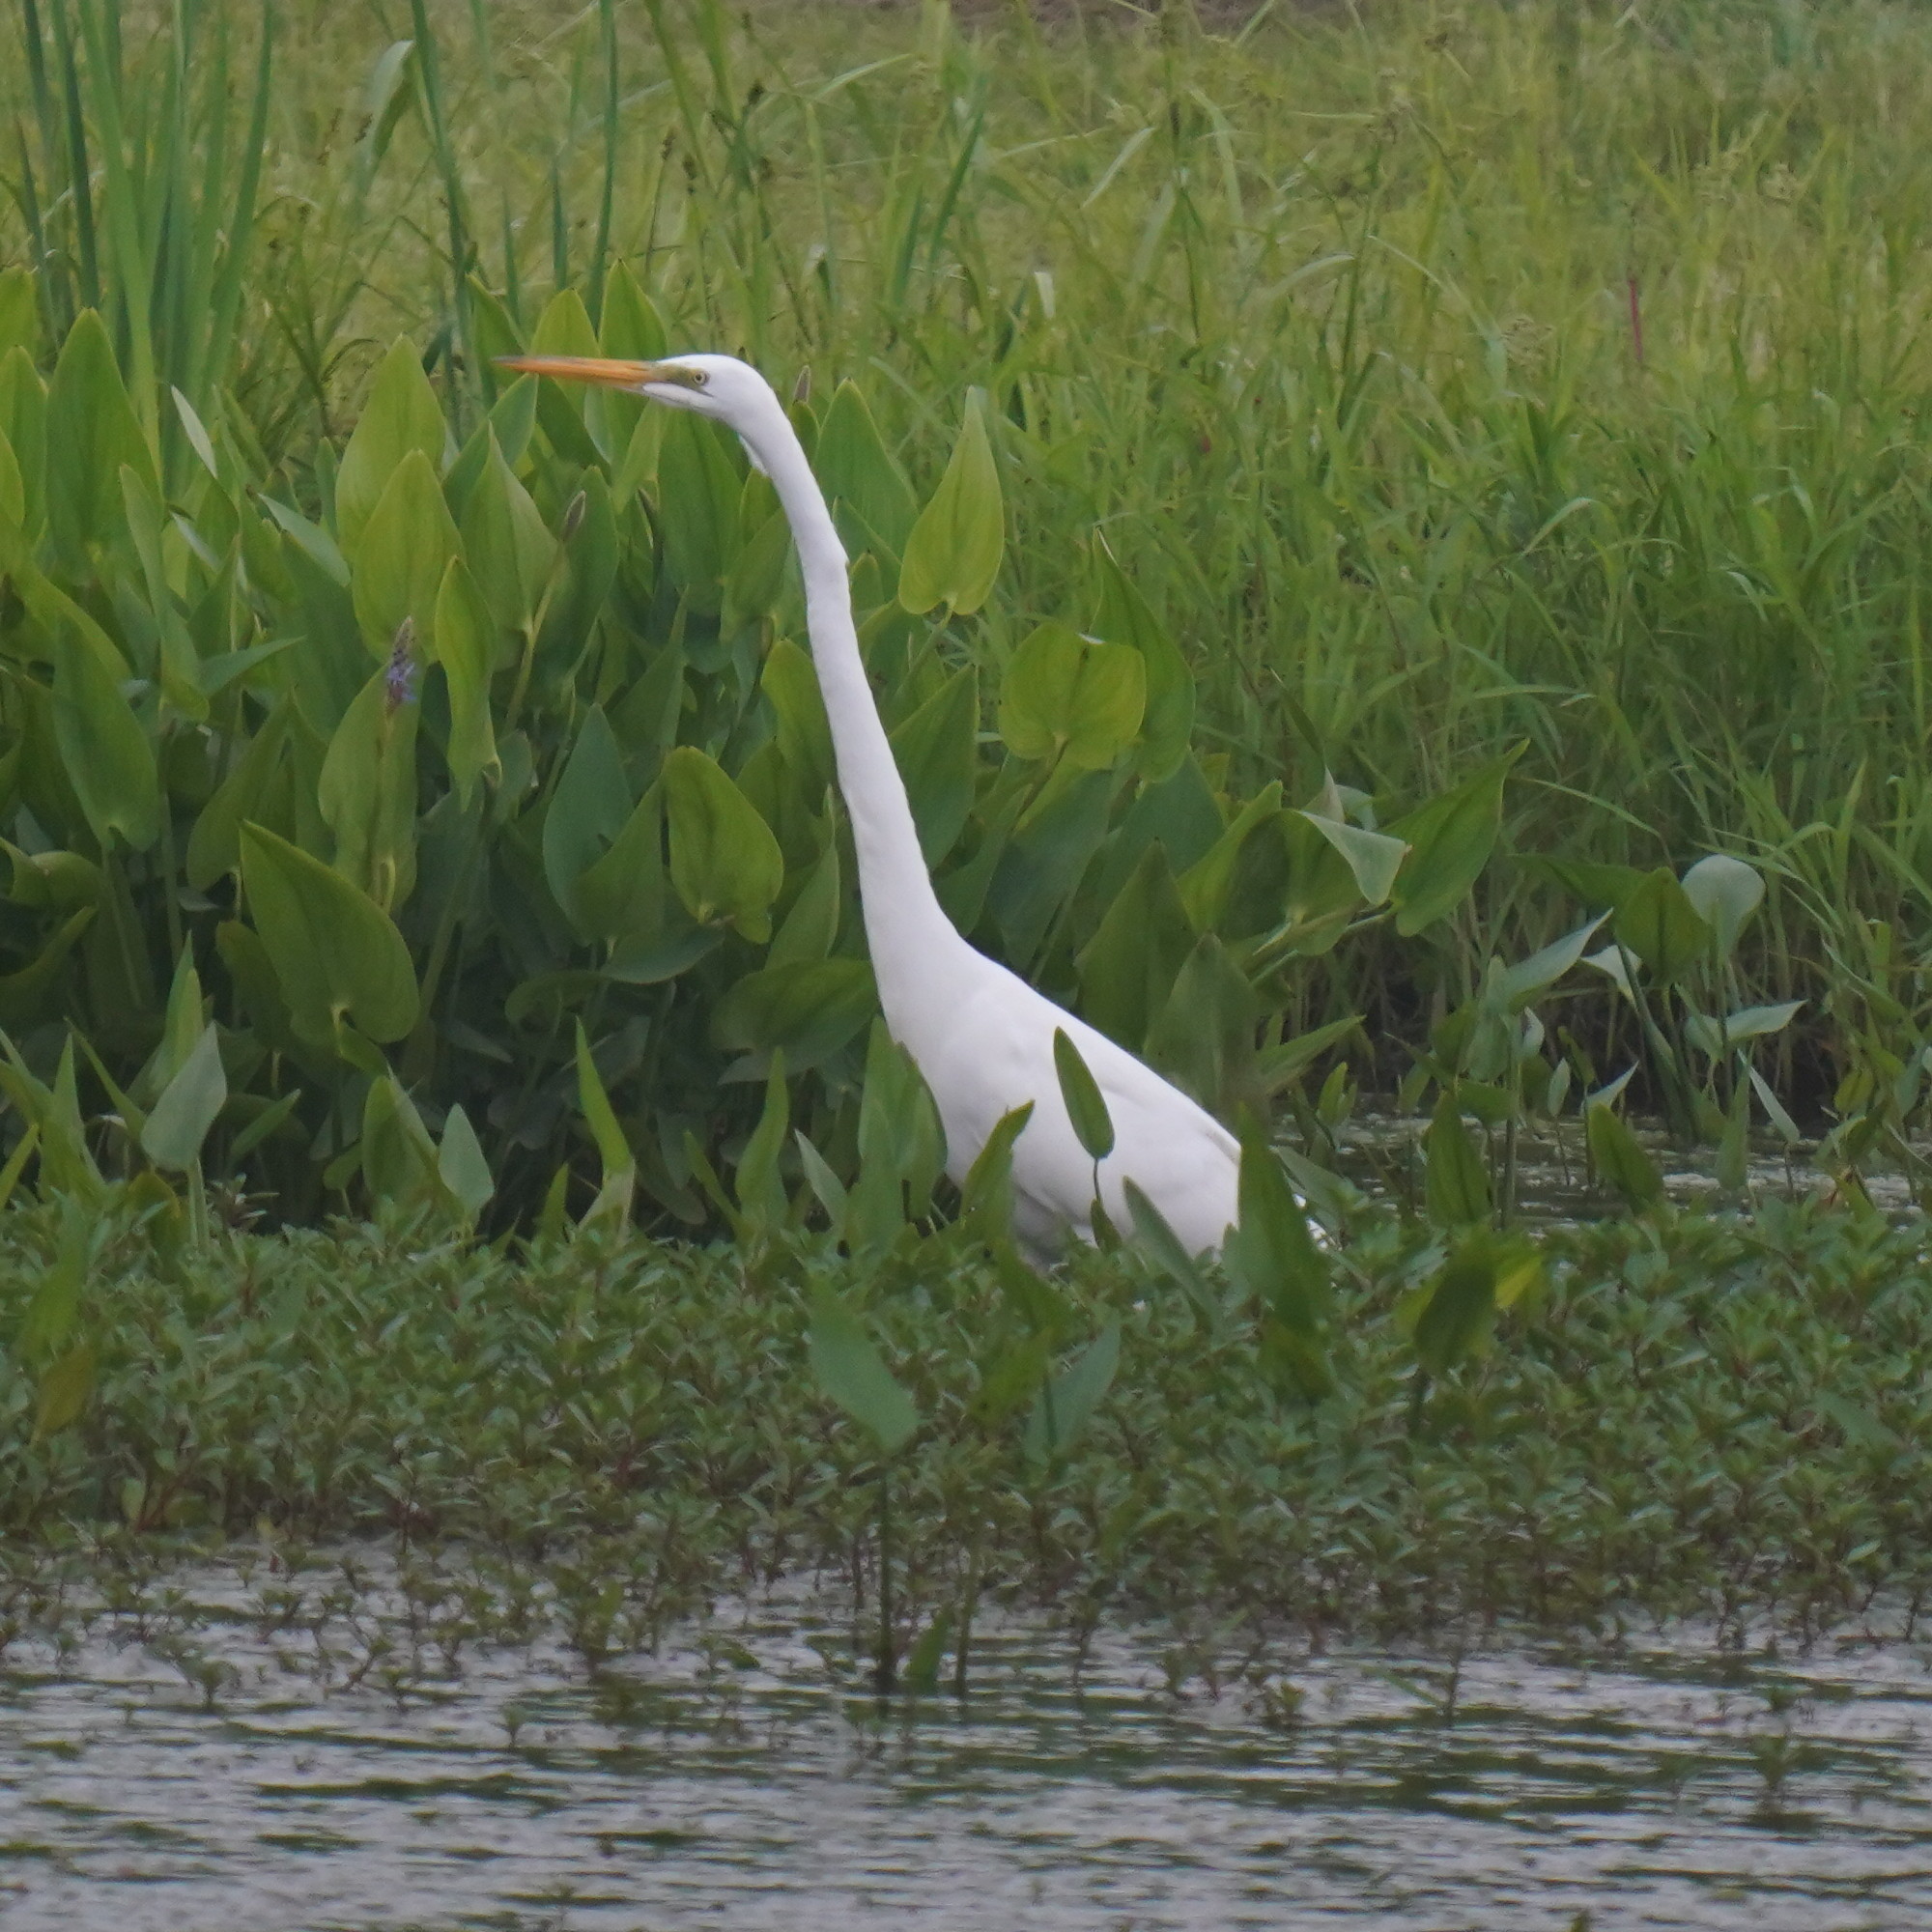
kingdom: Animalia
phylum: Chordata
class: Aves
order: Pelecaniformes
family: Ardeidae
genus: Ardea
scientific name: Ardea alba
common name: Great egret
